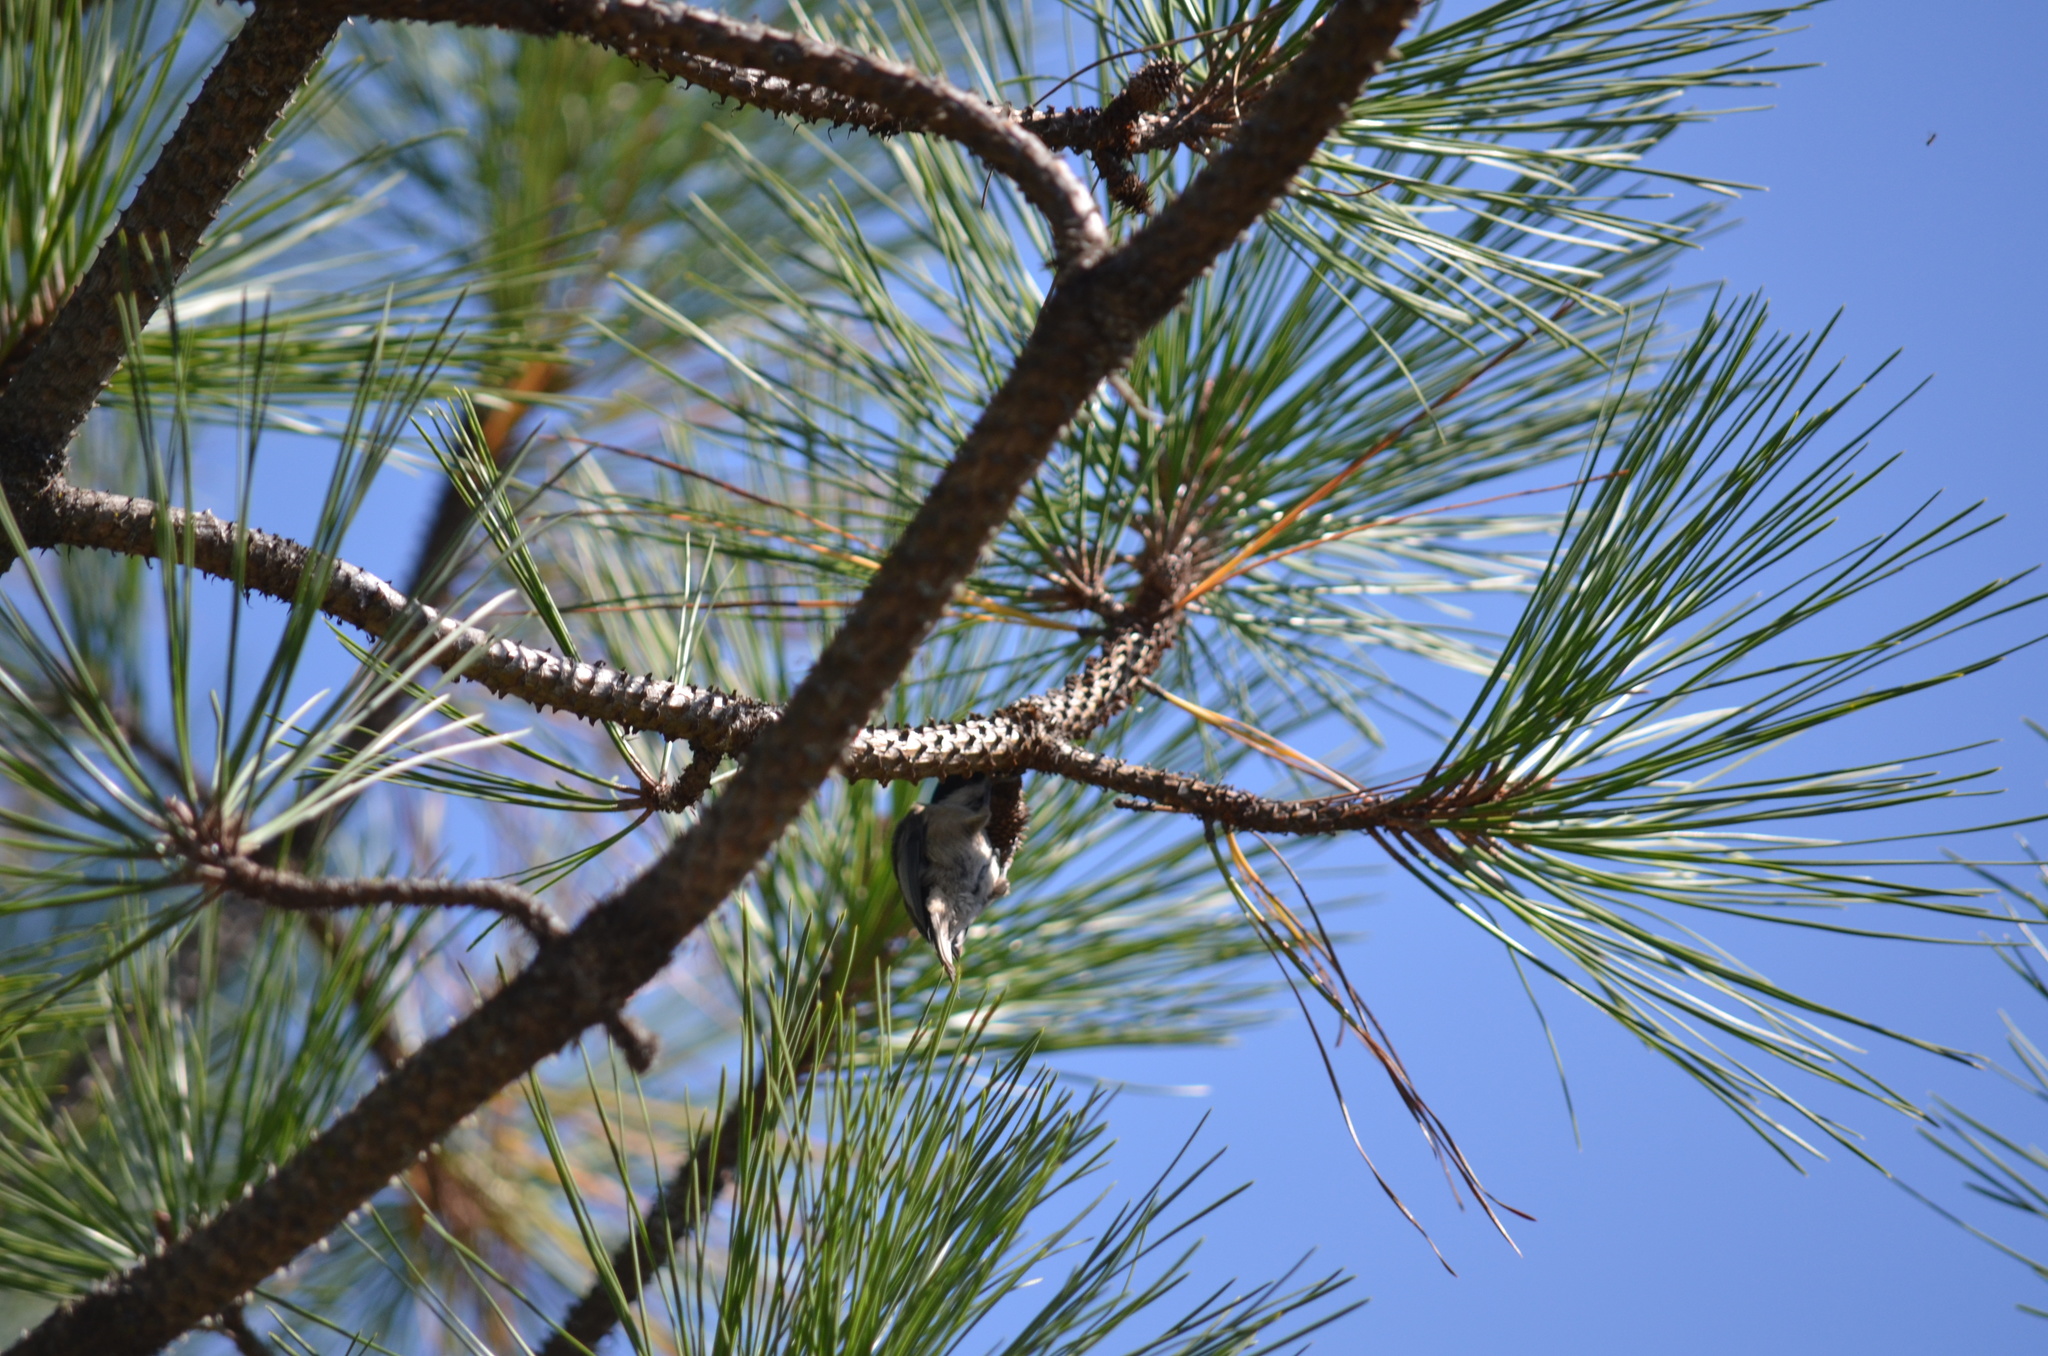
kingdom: Animalia
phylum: Chordata
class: Aves
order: Passeriformes
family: Paridae
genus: Poecile
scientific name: Poecile atricapillus
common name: Black-capped chickadee
